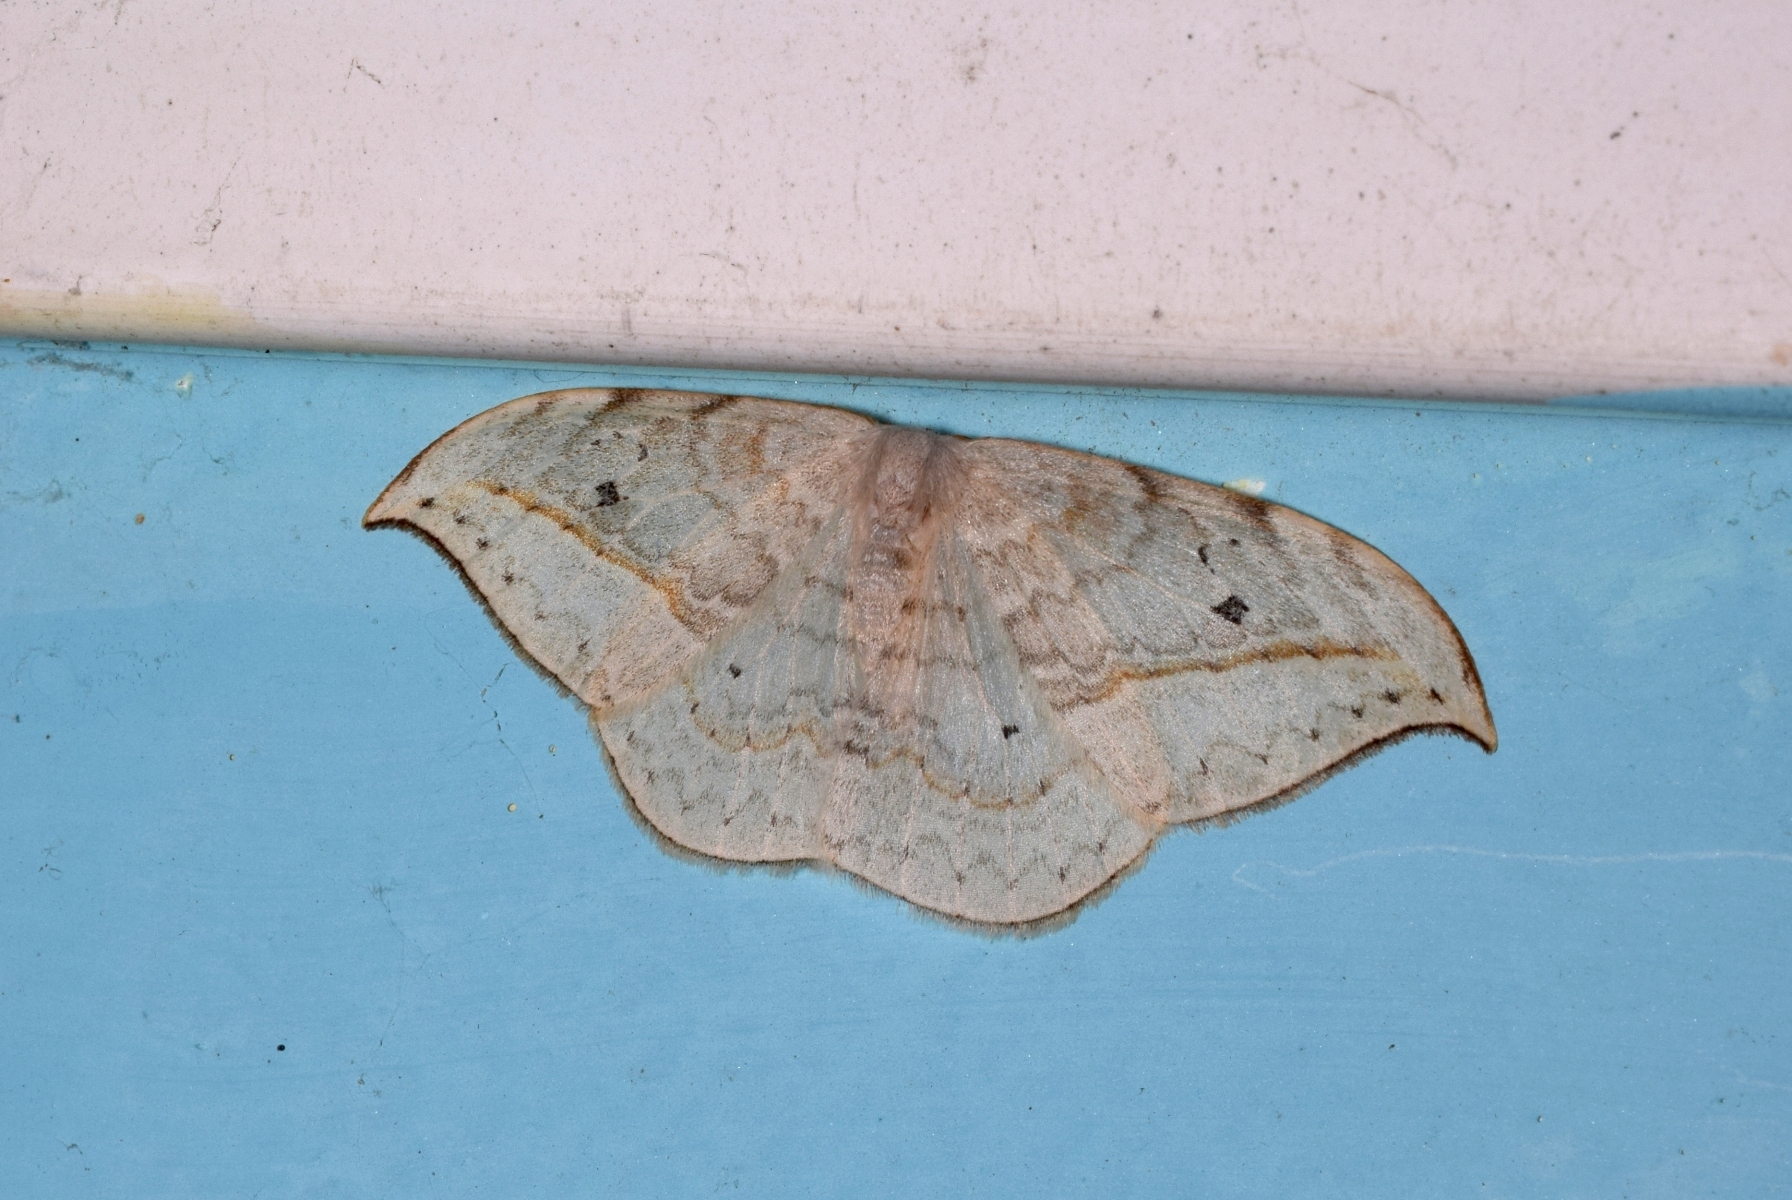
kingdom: Animalia
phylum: Arthropoda
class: Insecta
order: Lepidoptera
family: Drepanidae
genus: Drepana
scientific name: Drepana pallida
